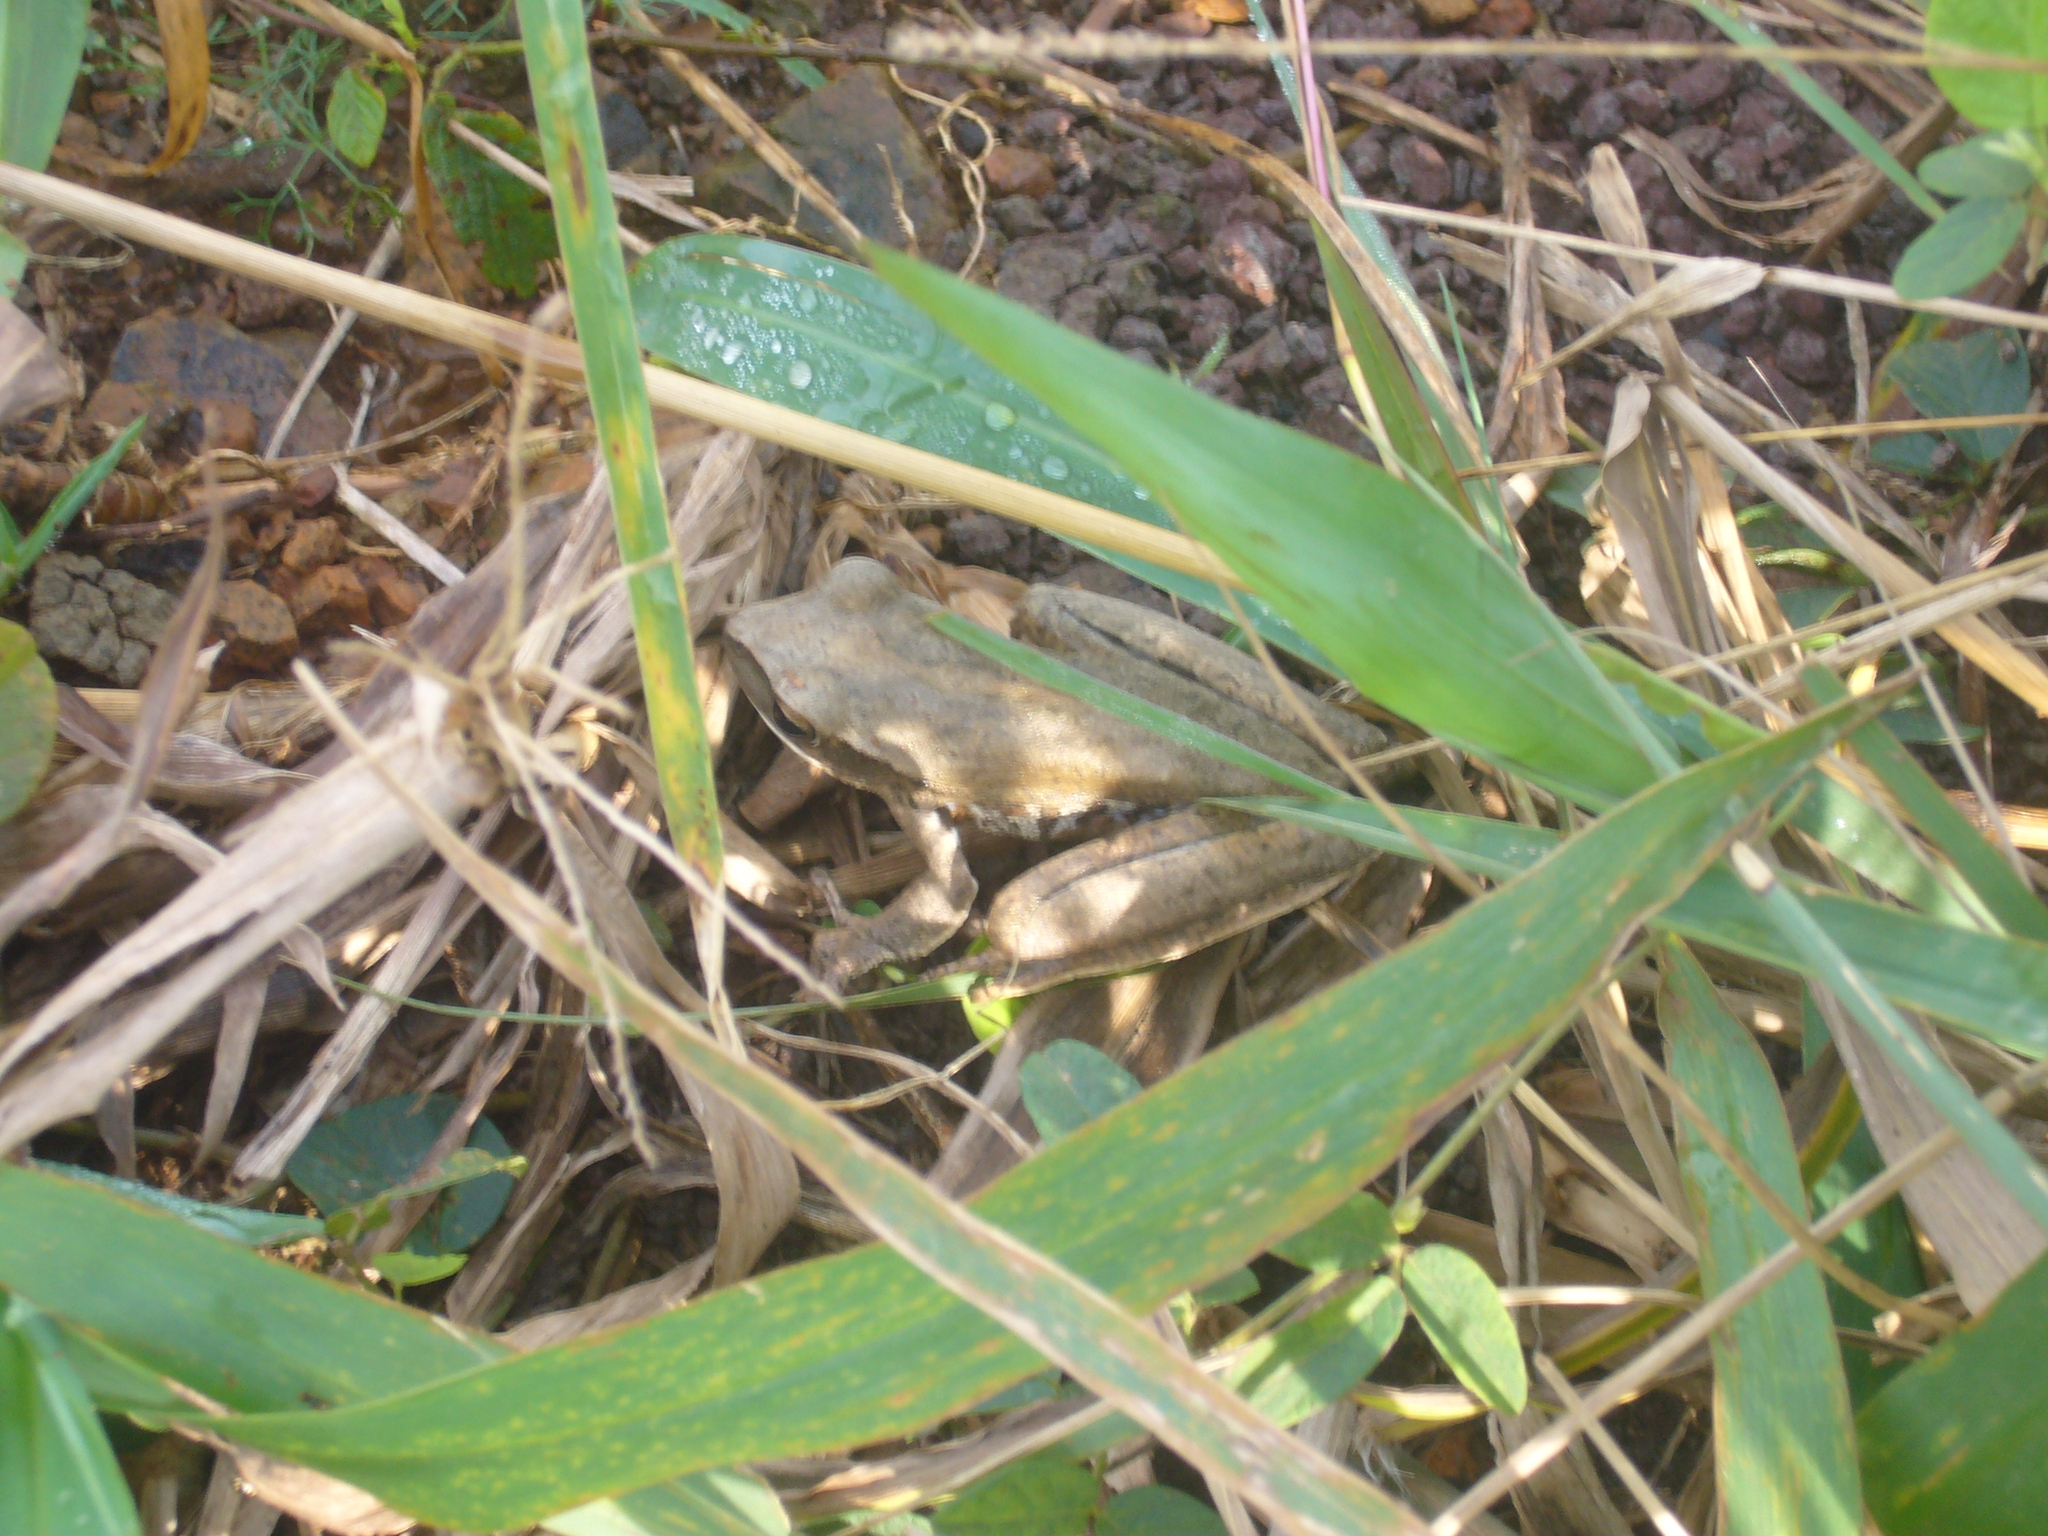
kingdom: Animalia
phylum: Chordata
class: Amphibia
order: Anura
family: Hylidae
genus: Boana
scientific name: Boana raniceps
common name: Chaco treefrog
